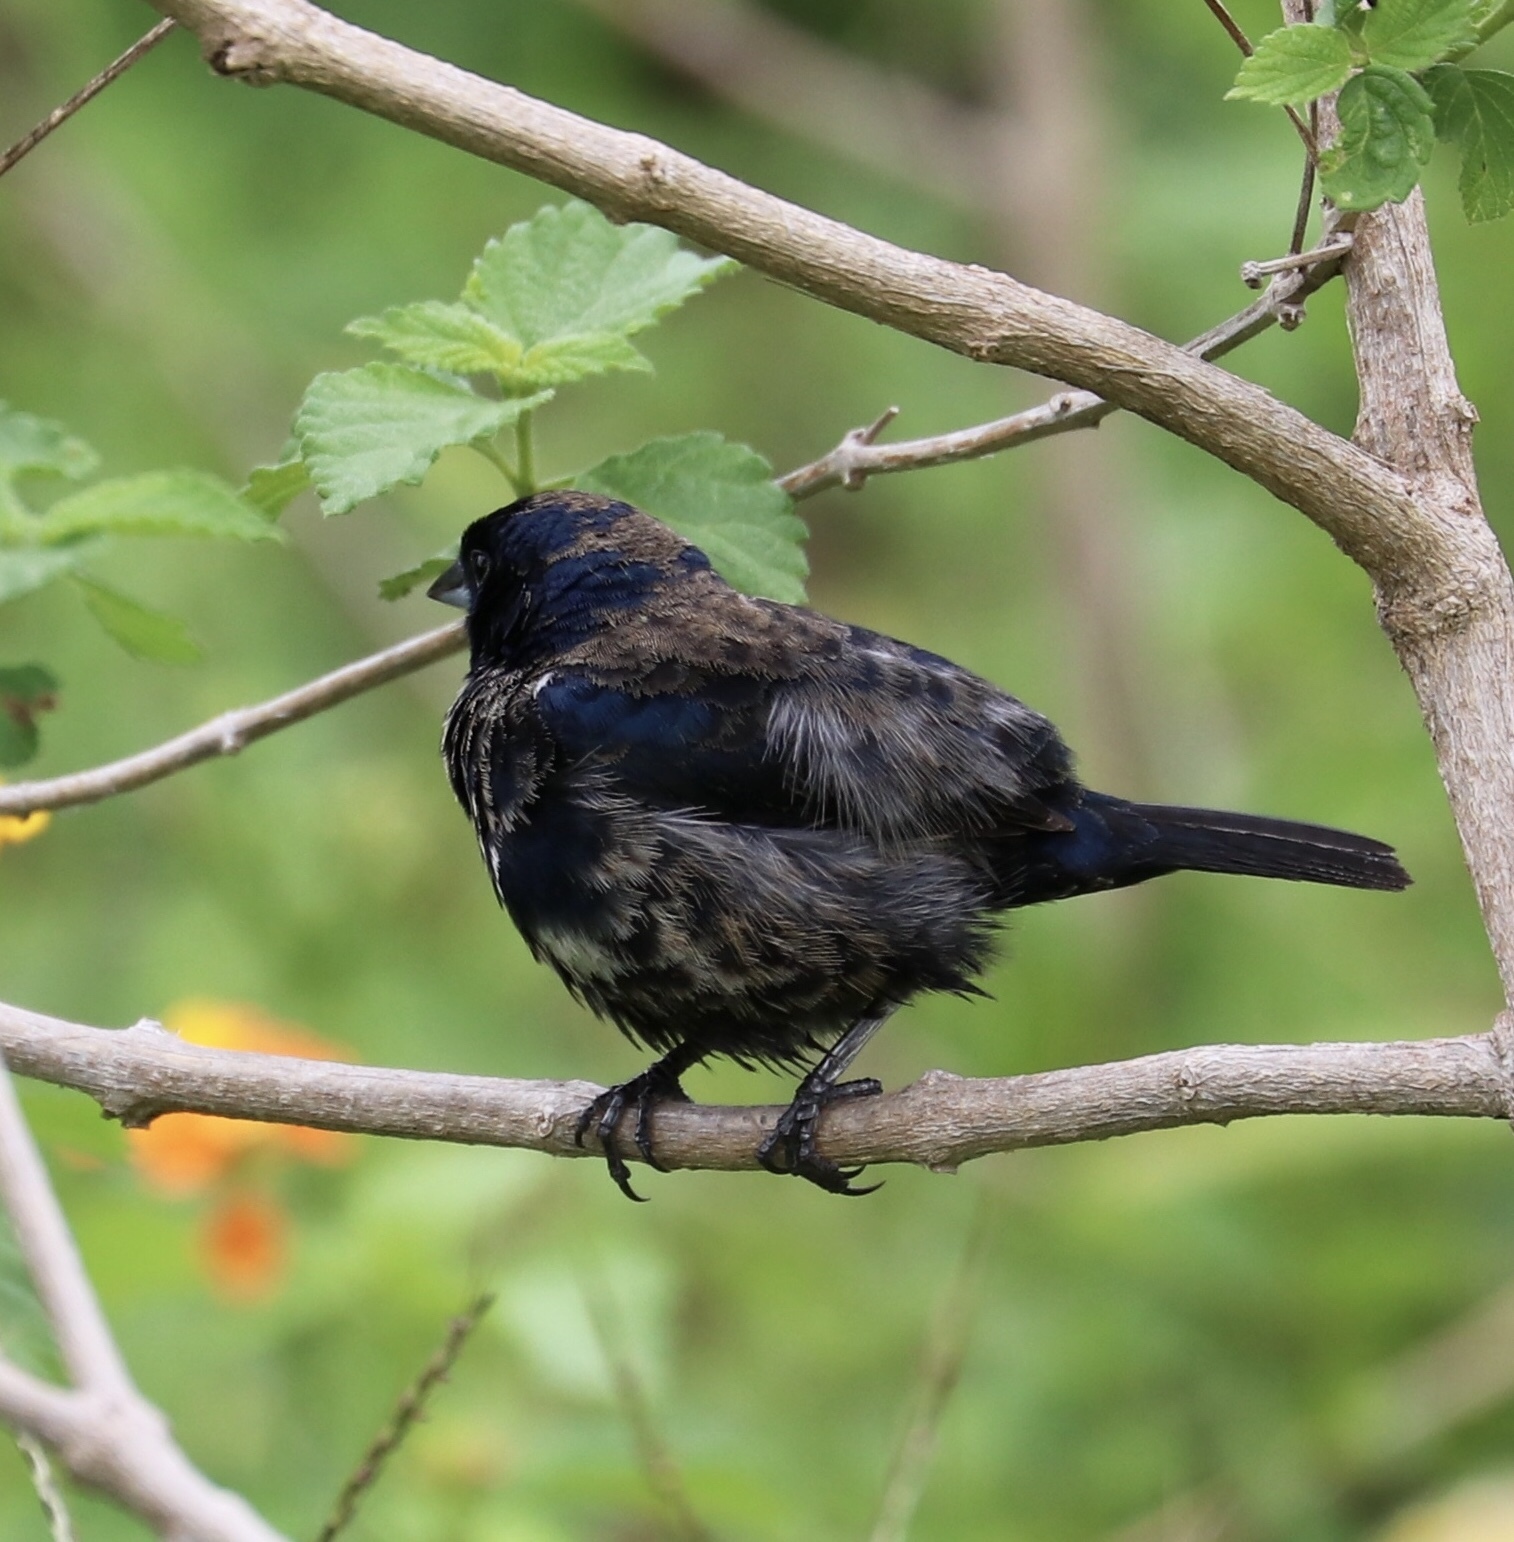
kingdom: Animalia
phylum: Chordata
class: Aves
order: Passeriformes
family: Thraupidae
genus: Volatinia
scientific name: Volatinia jacarina
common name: Blue-black grassquit
